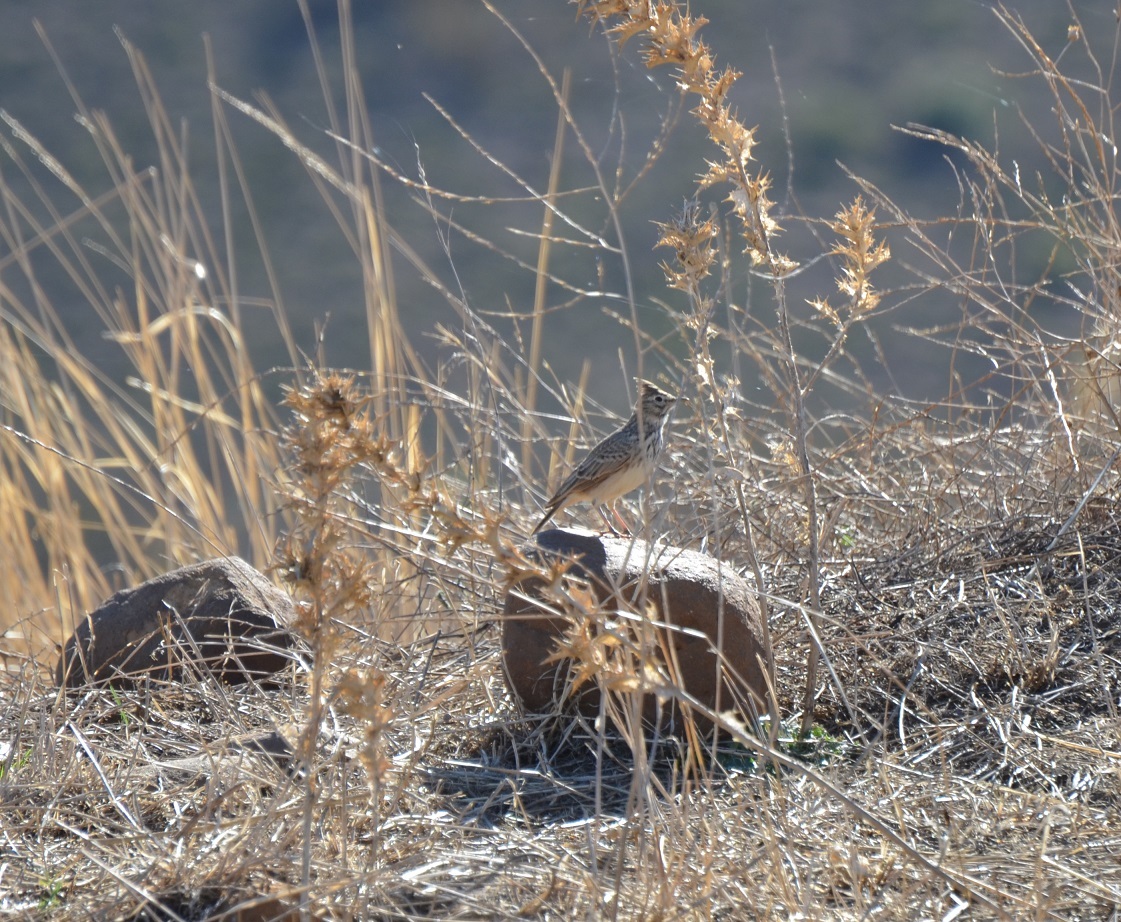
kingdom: Animalia
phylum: Chordata
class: Aves
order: Passeriformes
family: Alaudidae
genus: Galerida
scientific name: Galerida theklae
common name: Thekla lark
